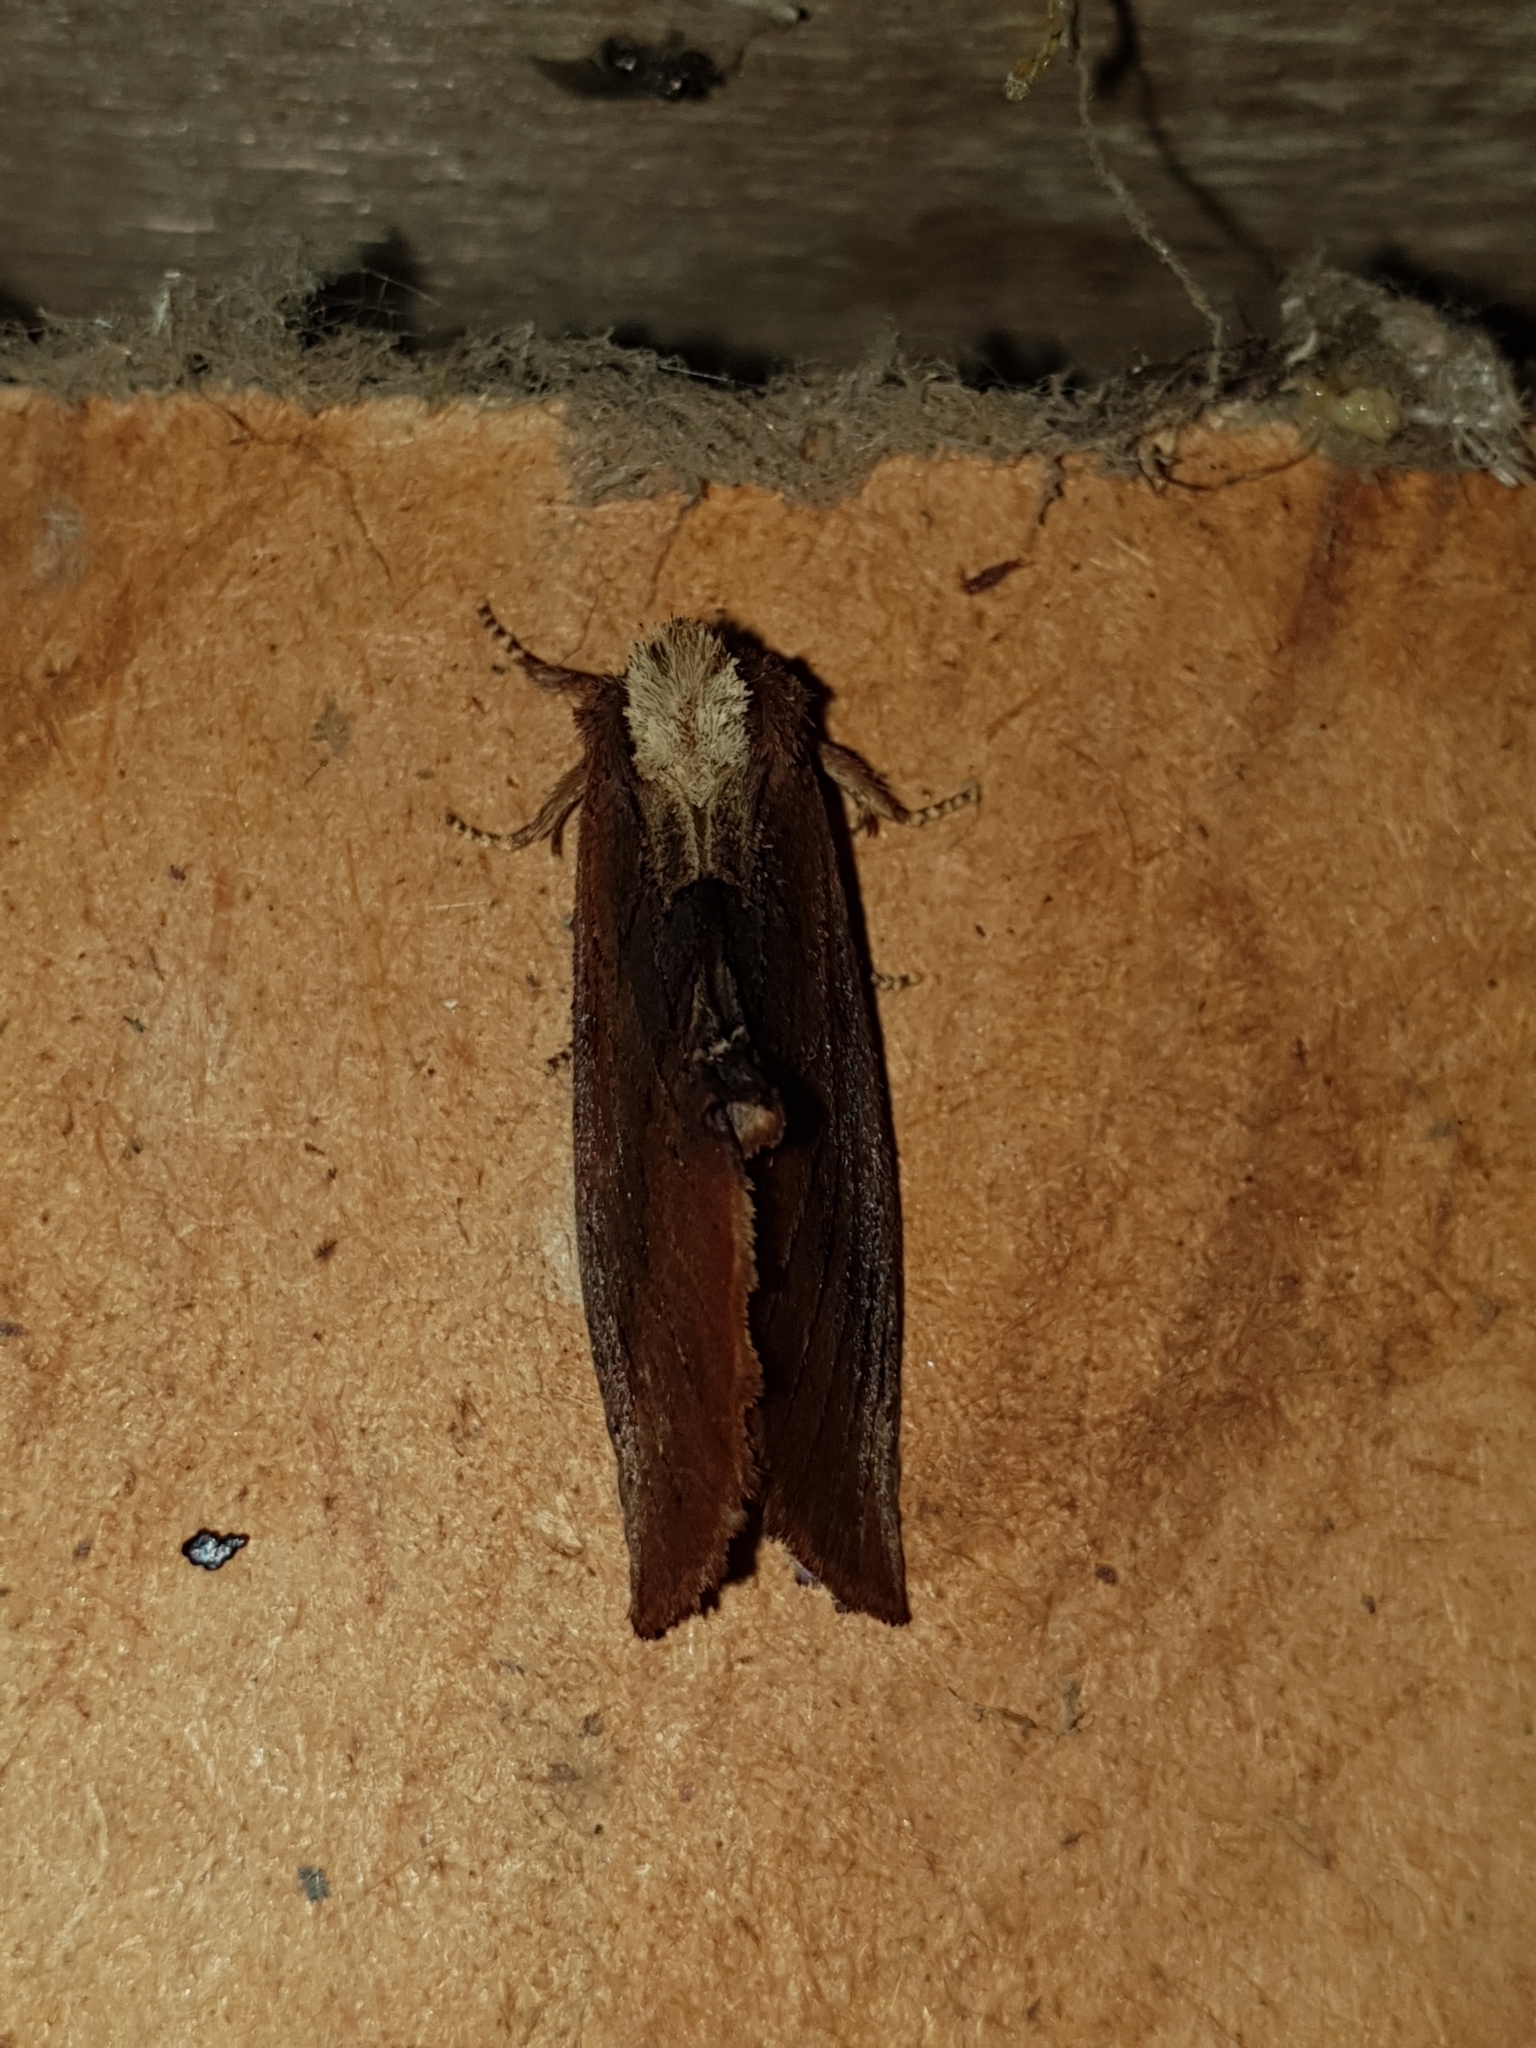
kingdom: Animalia
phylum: Arthropoda
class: Insecta
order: Lepidoptera
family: Notodontidae
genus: Ptilodon
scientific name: Ptilodon capucina
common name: Coxcomb prominent
